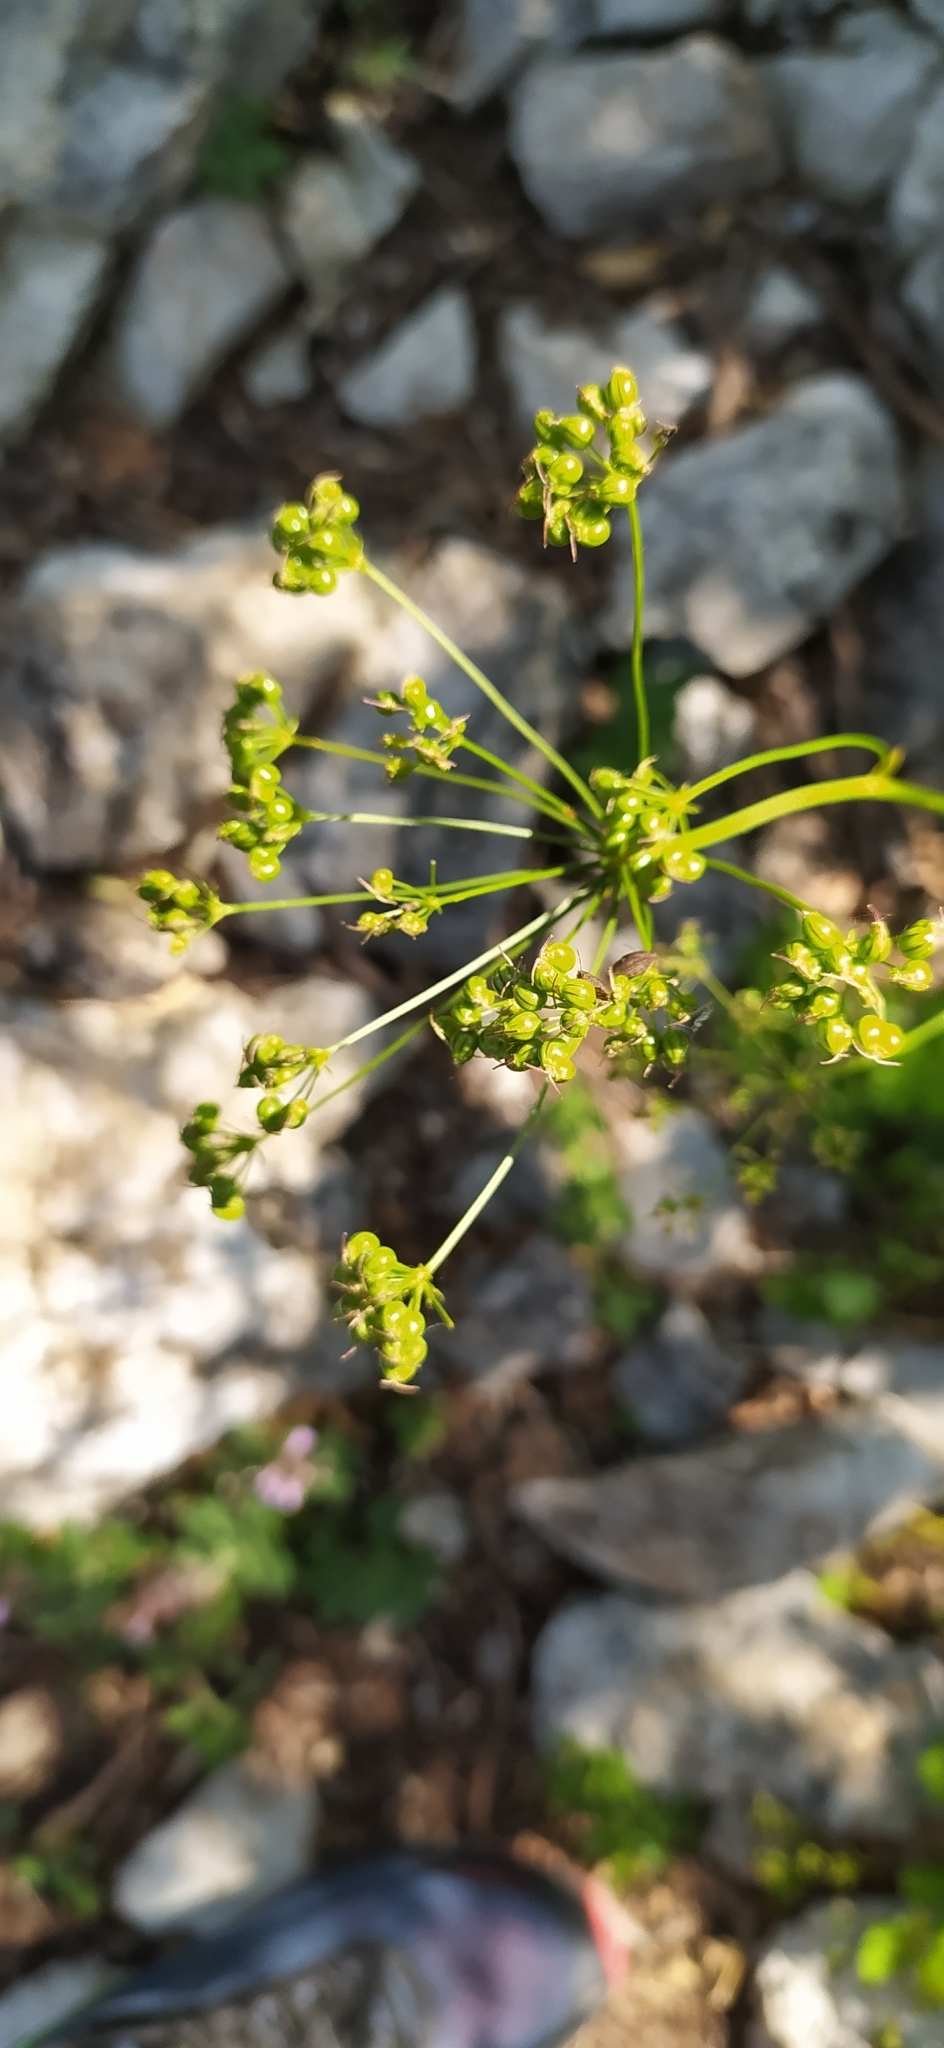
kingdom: Plantae
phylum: Tracheophyta
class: Magnoliopsida
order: Apiales
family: Apiaceae
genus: Physospermum
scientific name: Physospermum cornubiense
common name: Bladderseed
